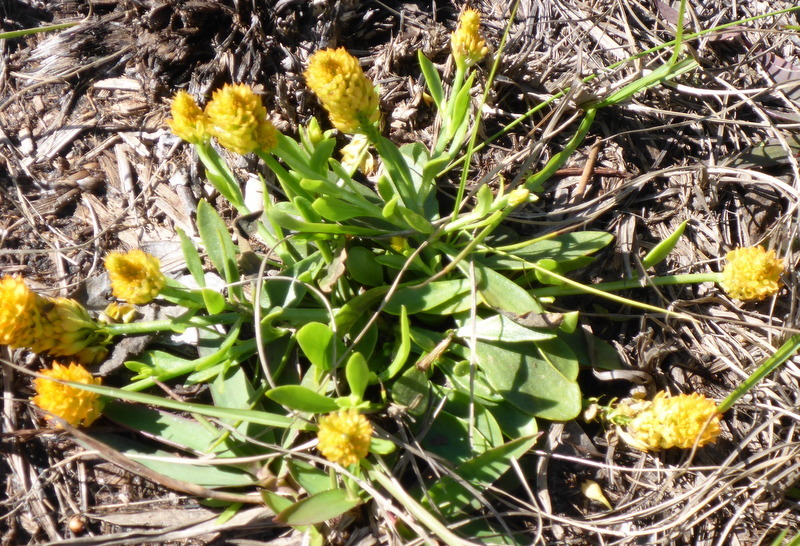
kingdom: Plantae
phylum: Tracheophyta
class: Magnoliopsida
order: Fabales
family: Polygalaceae
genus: Polygala
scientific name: Polygala lutea
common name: Orange milkwort
